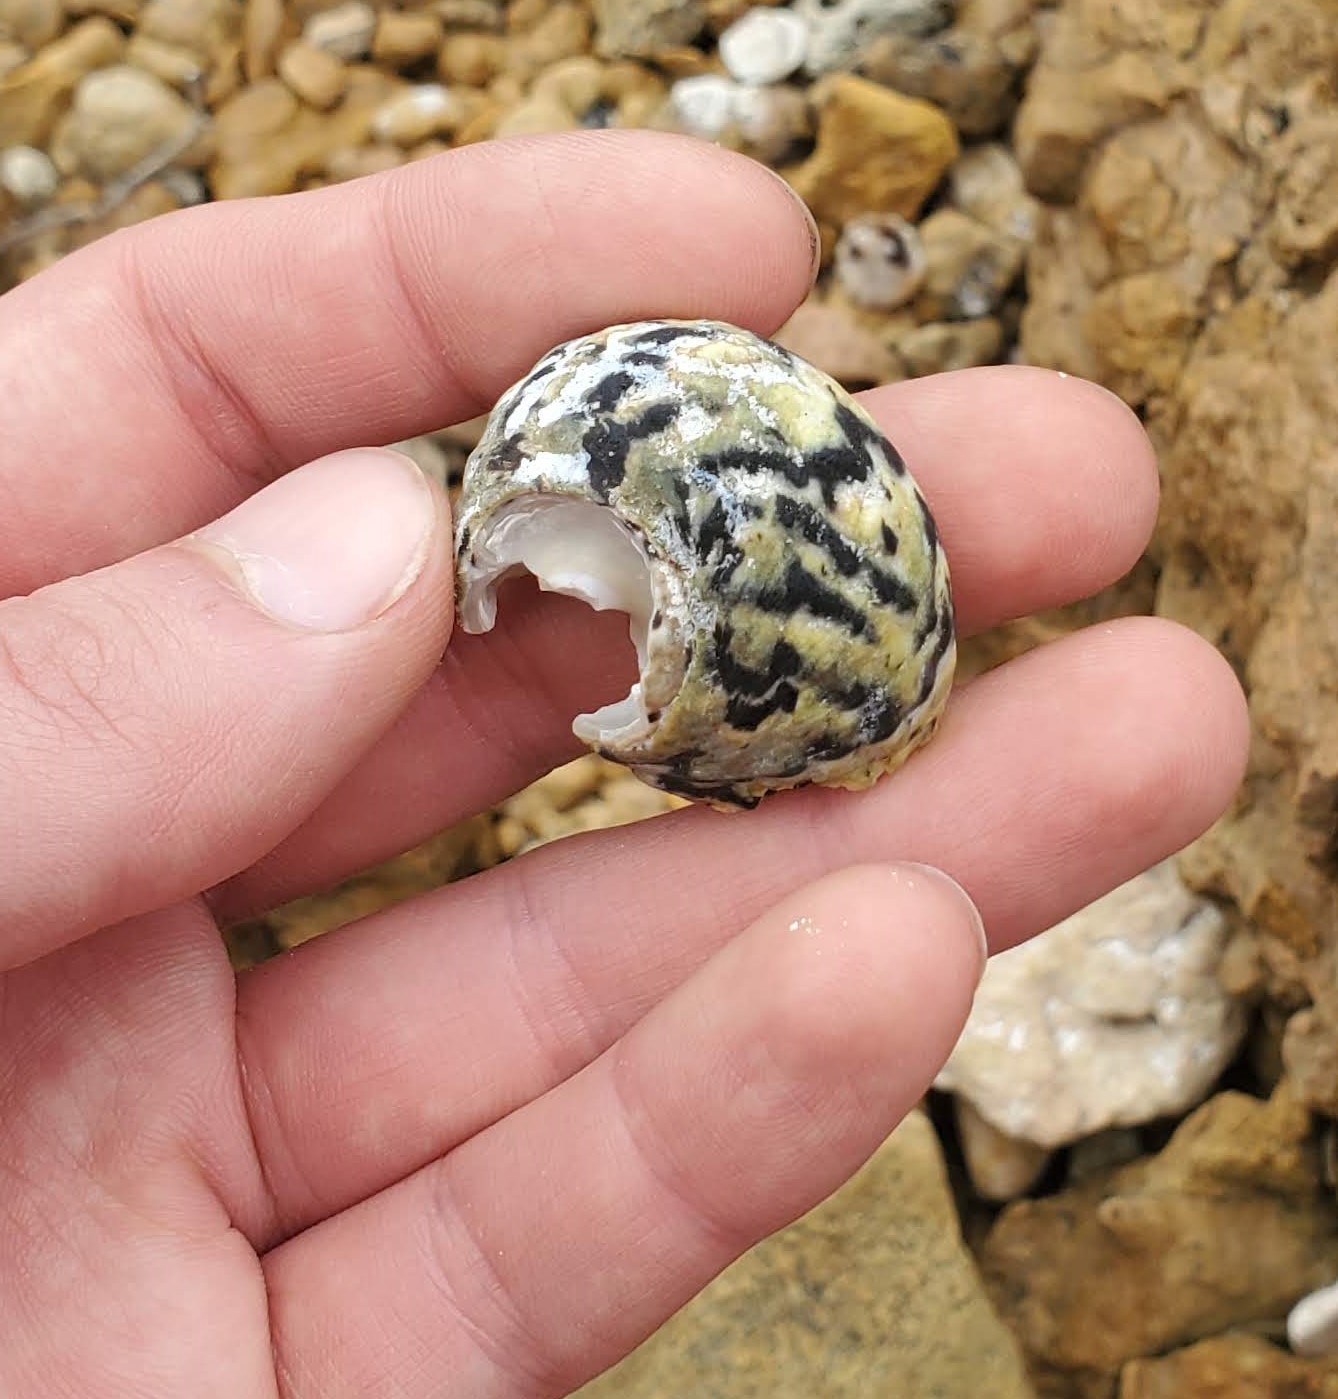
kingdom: Animalia
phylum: Mollusca
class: Gastropoda
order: Trochida
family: Tegulidae
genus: Cittarium
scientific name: Cittarium pica
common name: West indian topshell
